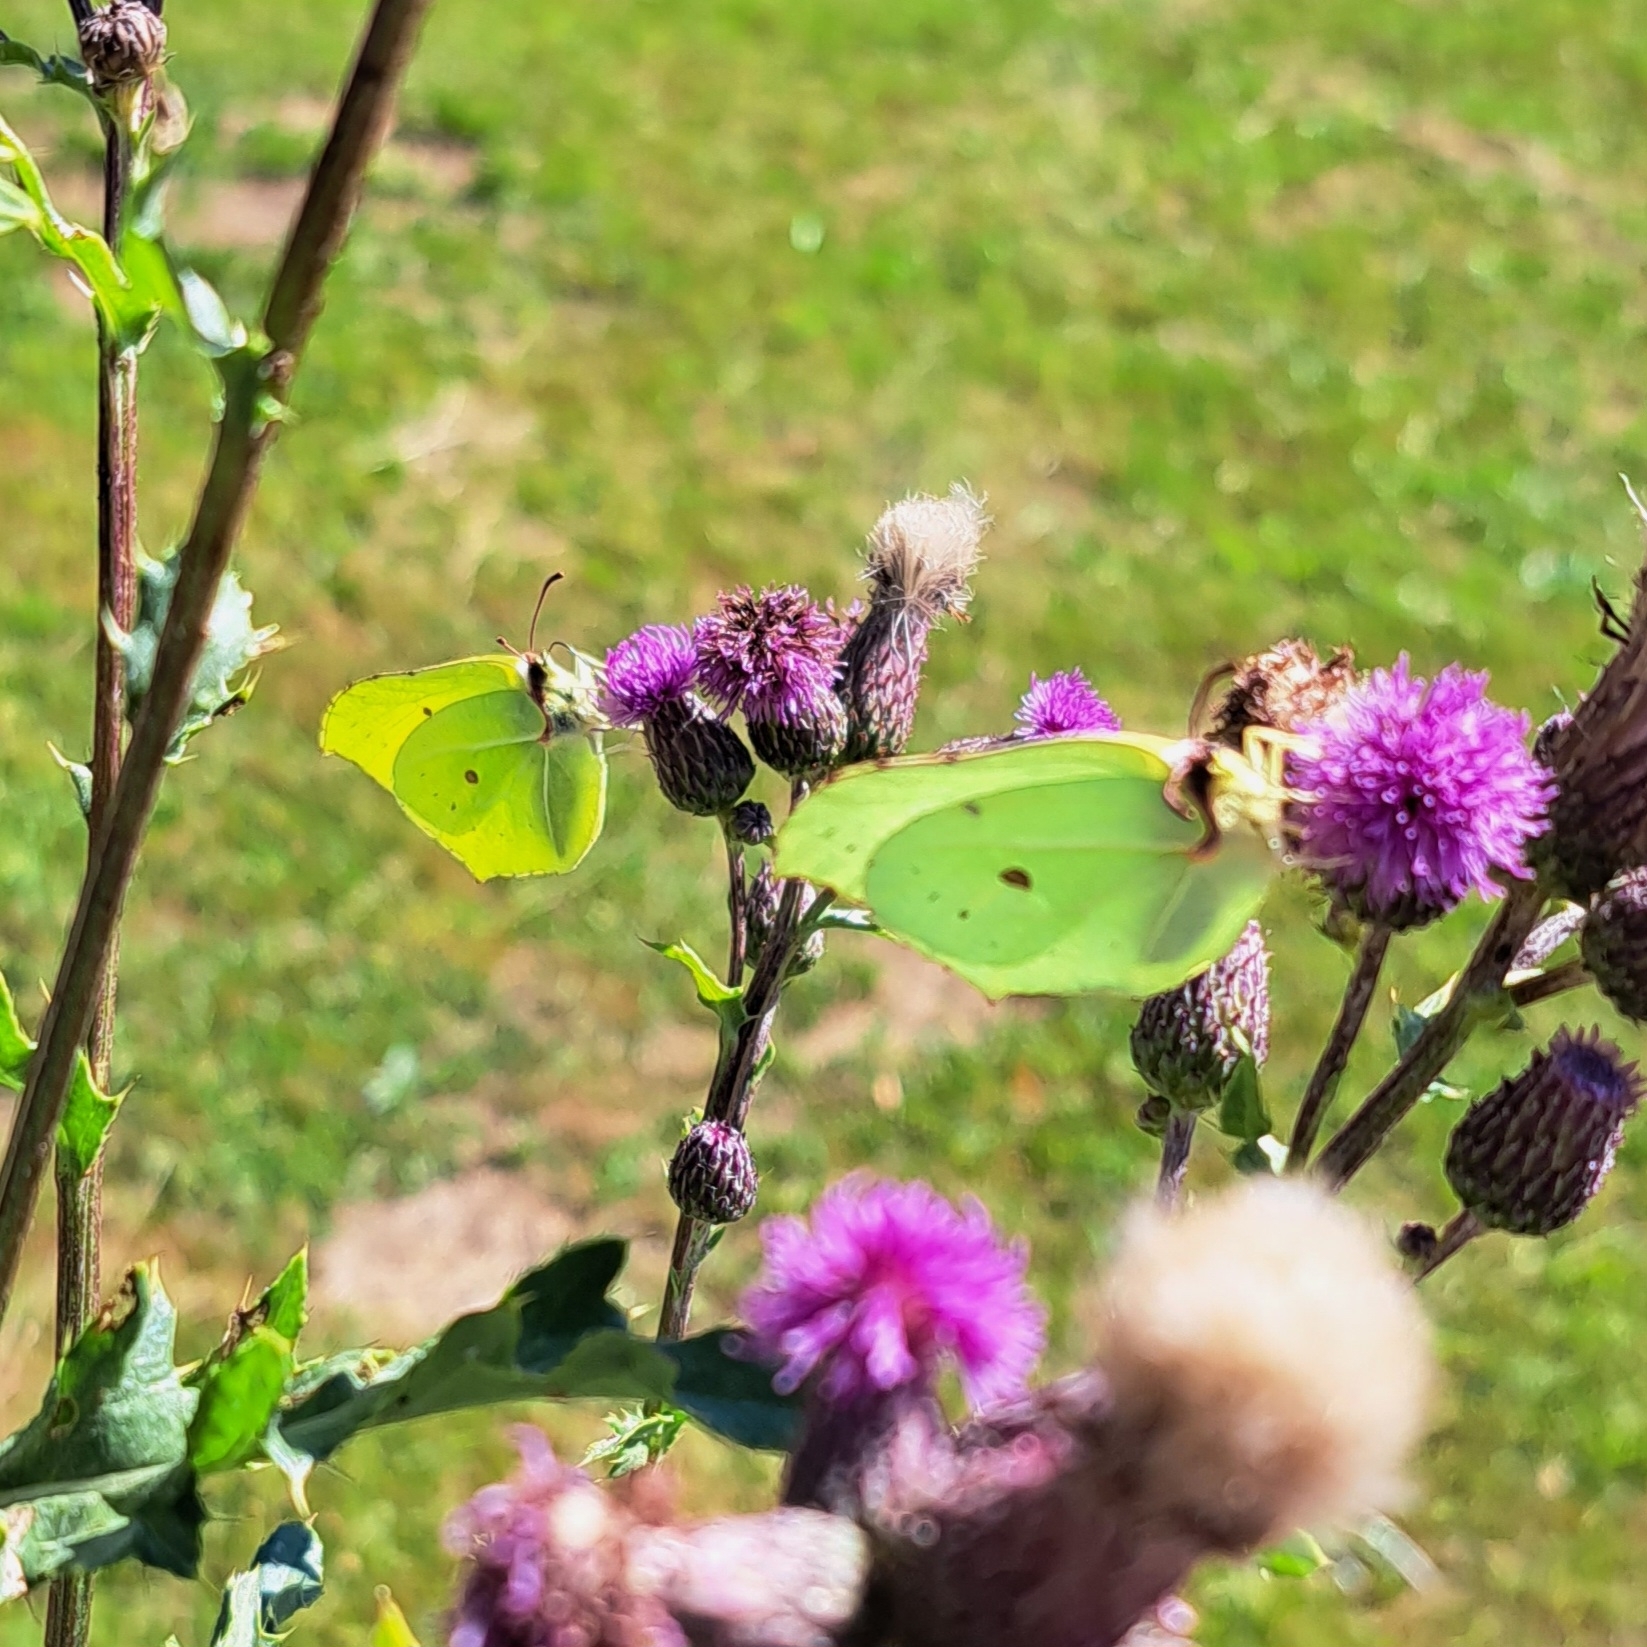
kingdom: Animalia
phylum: Arthropoda
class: Insecta
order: Lepidoptera
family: Pieridae
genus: Gonepteryx
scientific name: Gonepteryx rhamni
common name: Brimstone
